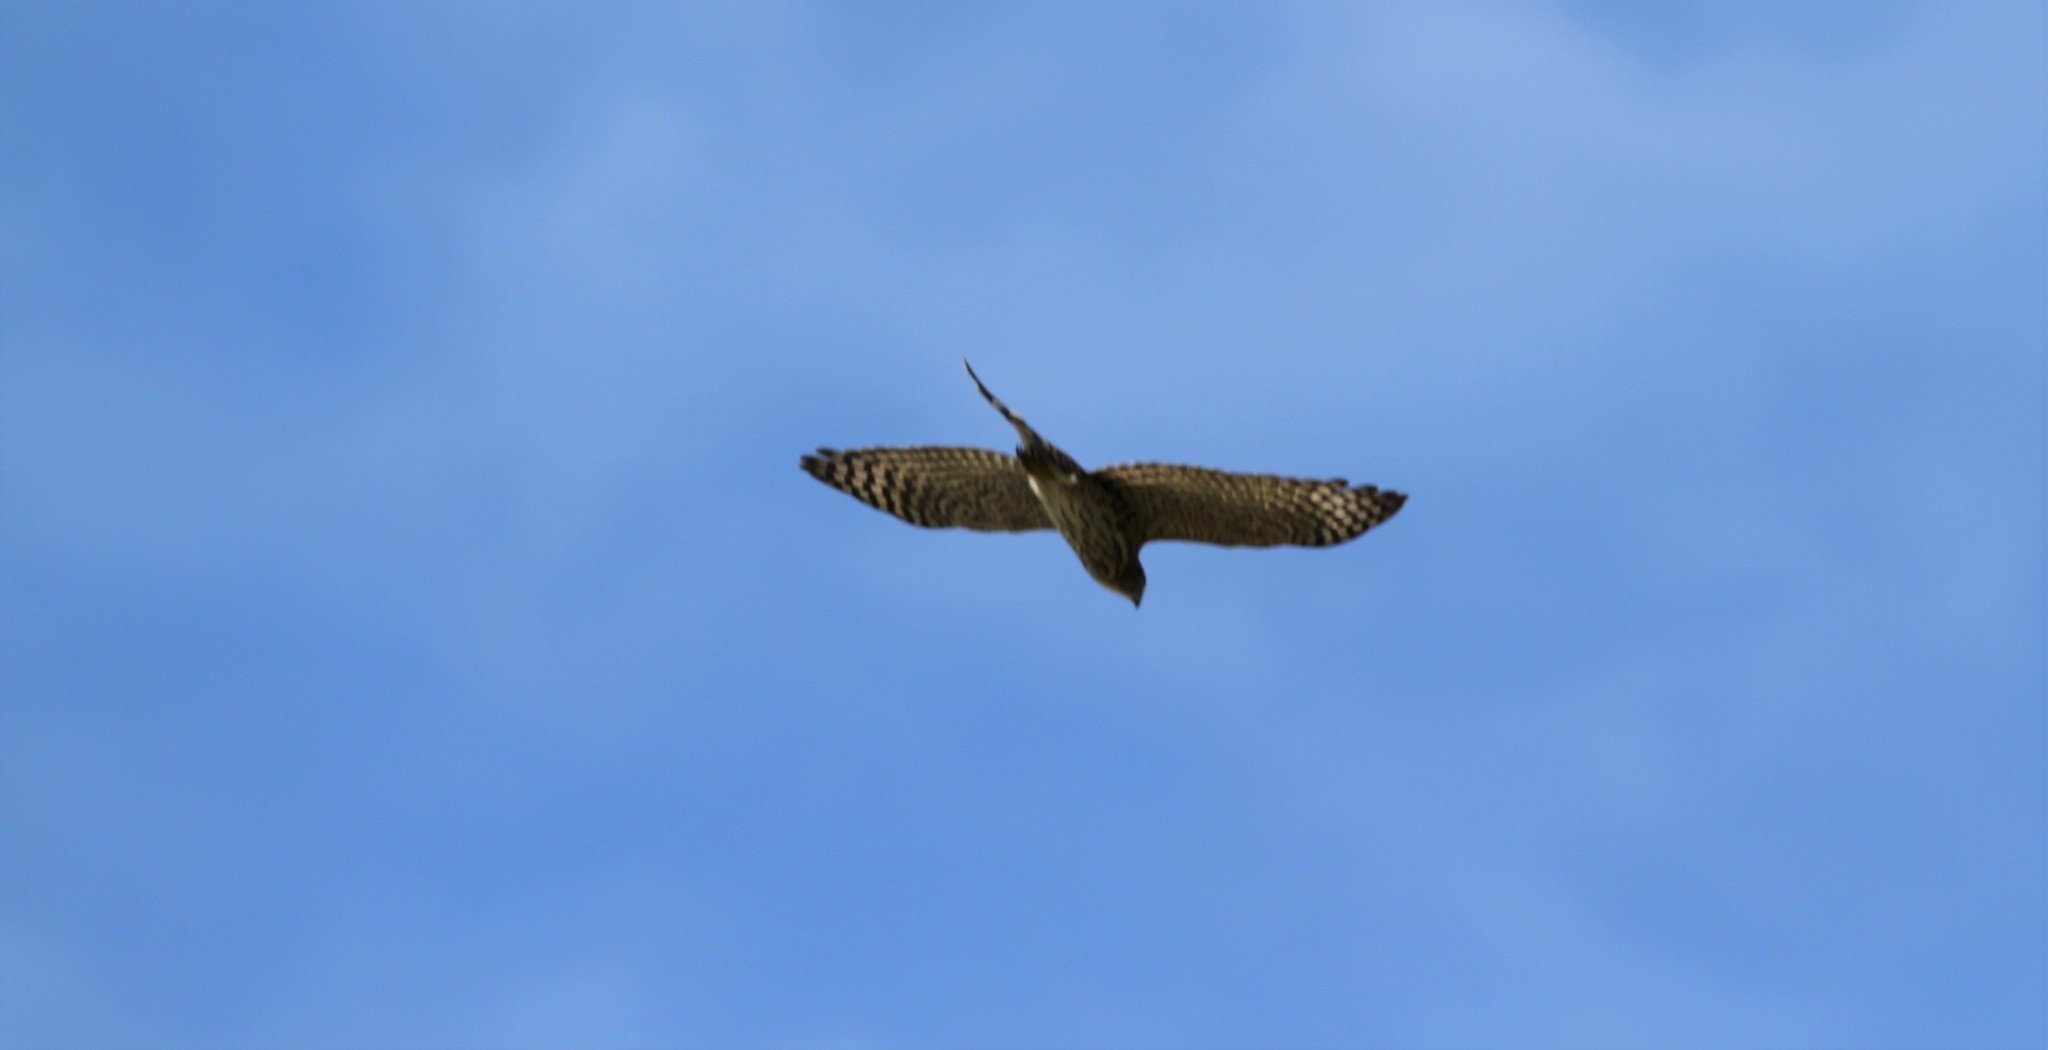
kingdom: Animalia
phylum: Chordata
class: Aves
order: Accipitriformes
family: Accipitridae
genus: Accipiter
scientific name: Accipiter cooperii
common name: Cooper's hawk
